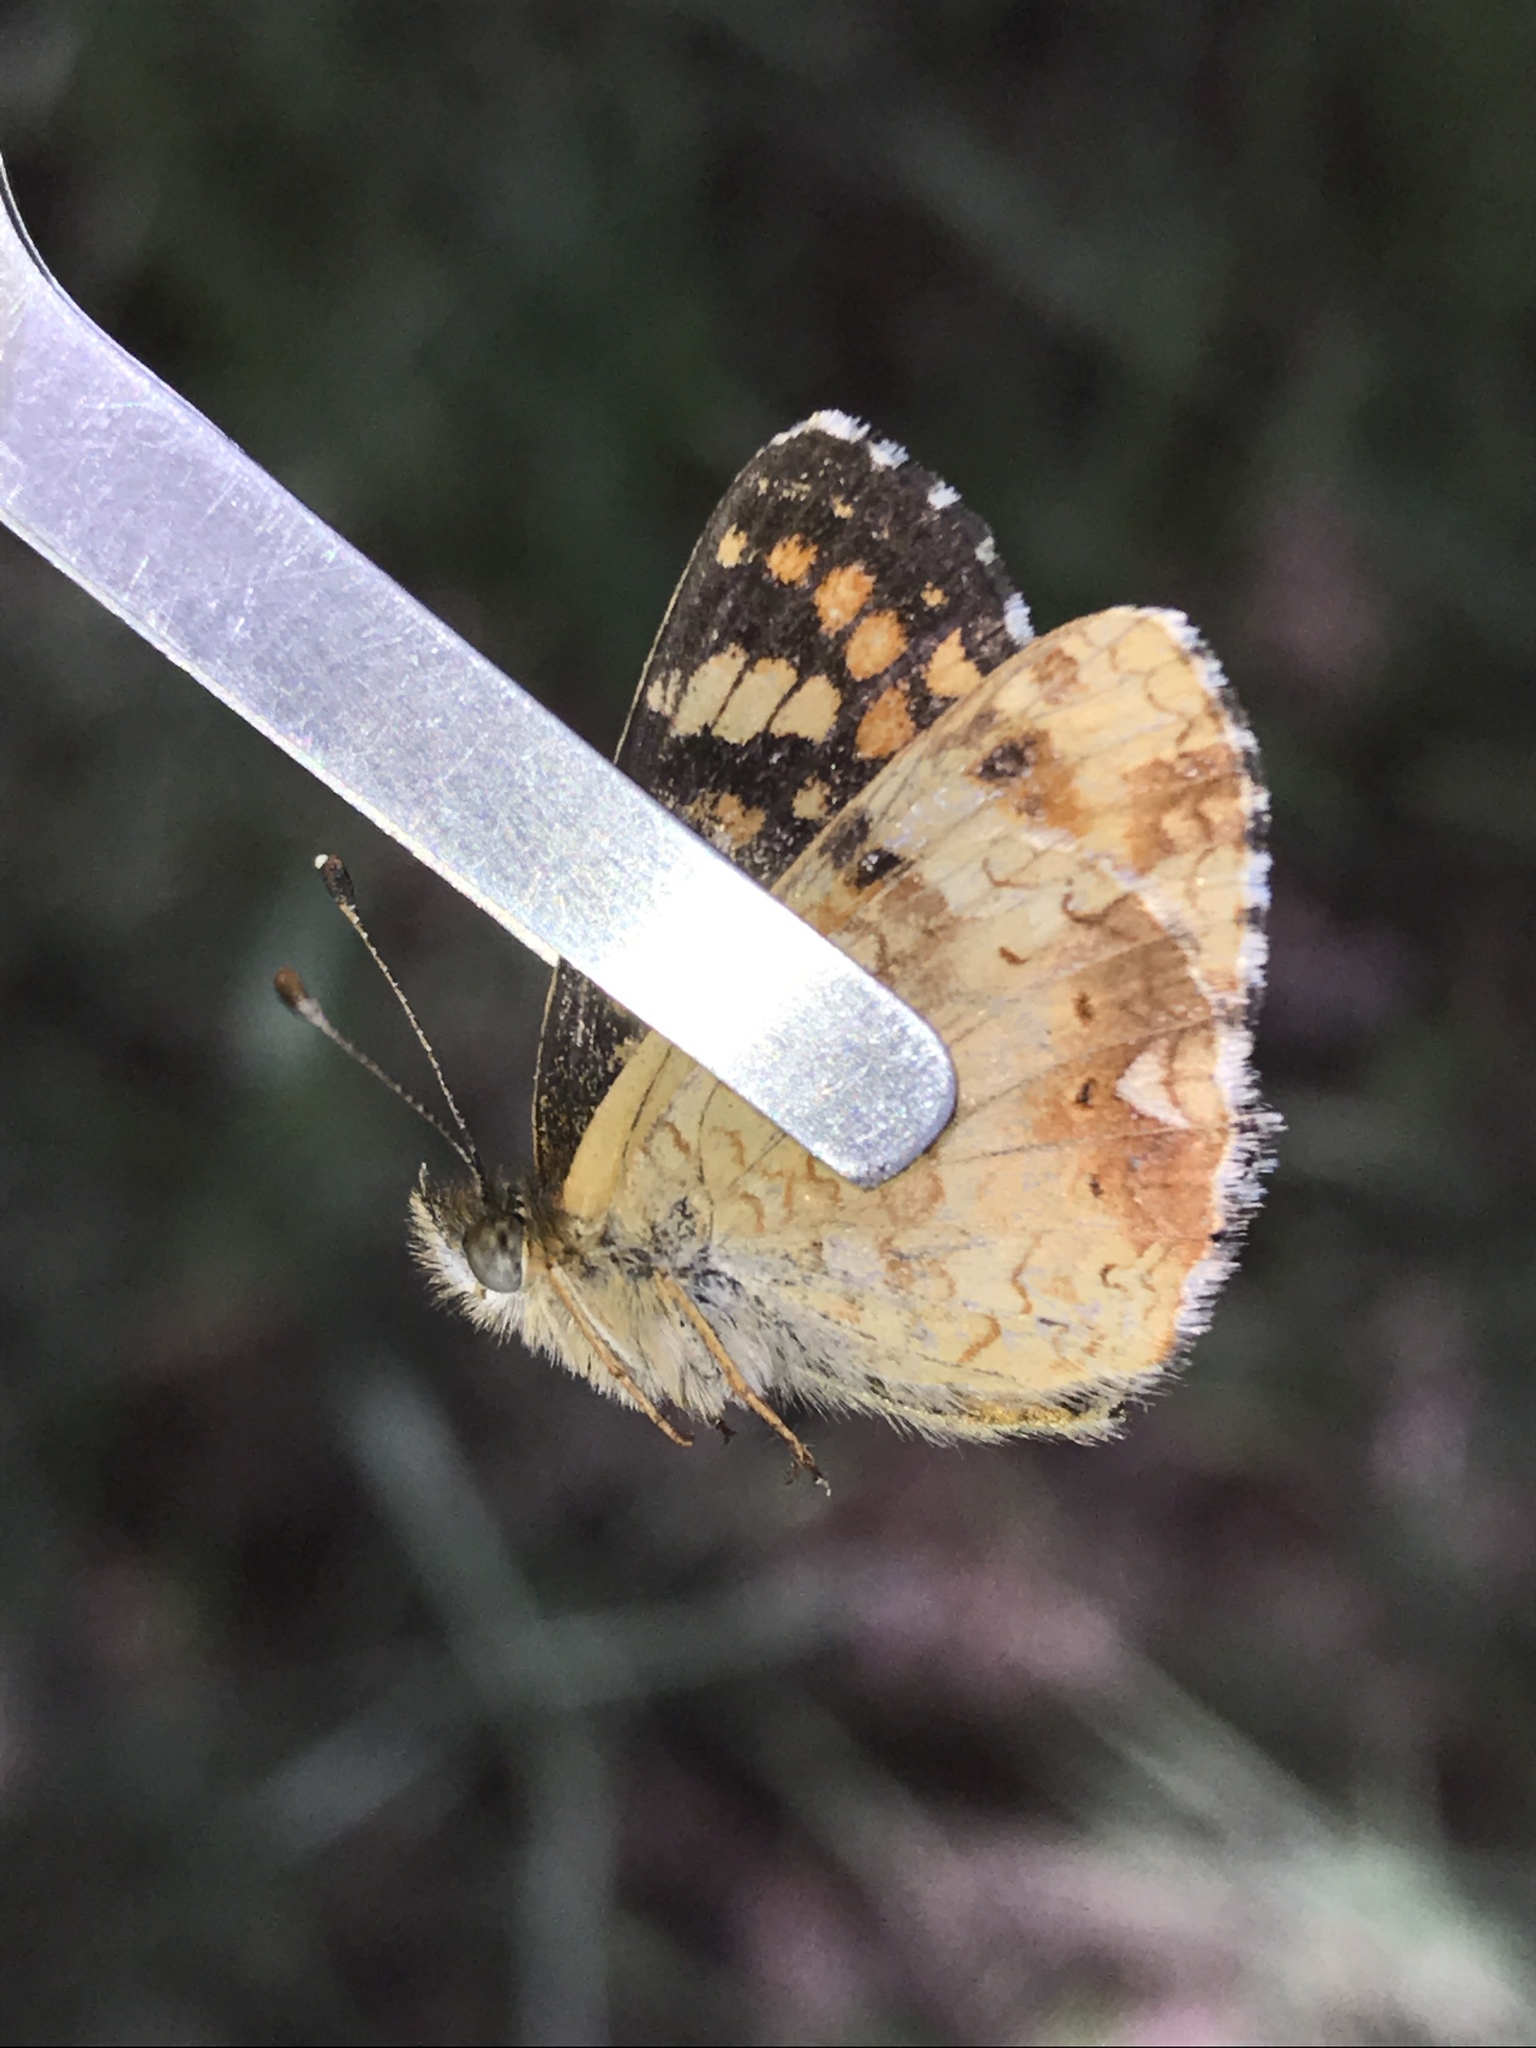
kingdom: Animalia
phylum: Arthropoda
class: Insecta
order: Lepidoptera
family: Nymphalidae
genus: Phyciodes
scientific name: Phyciodes tharos
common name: Pearl crescent
